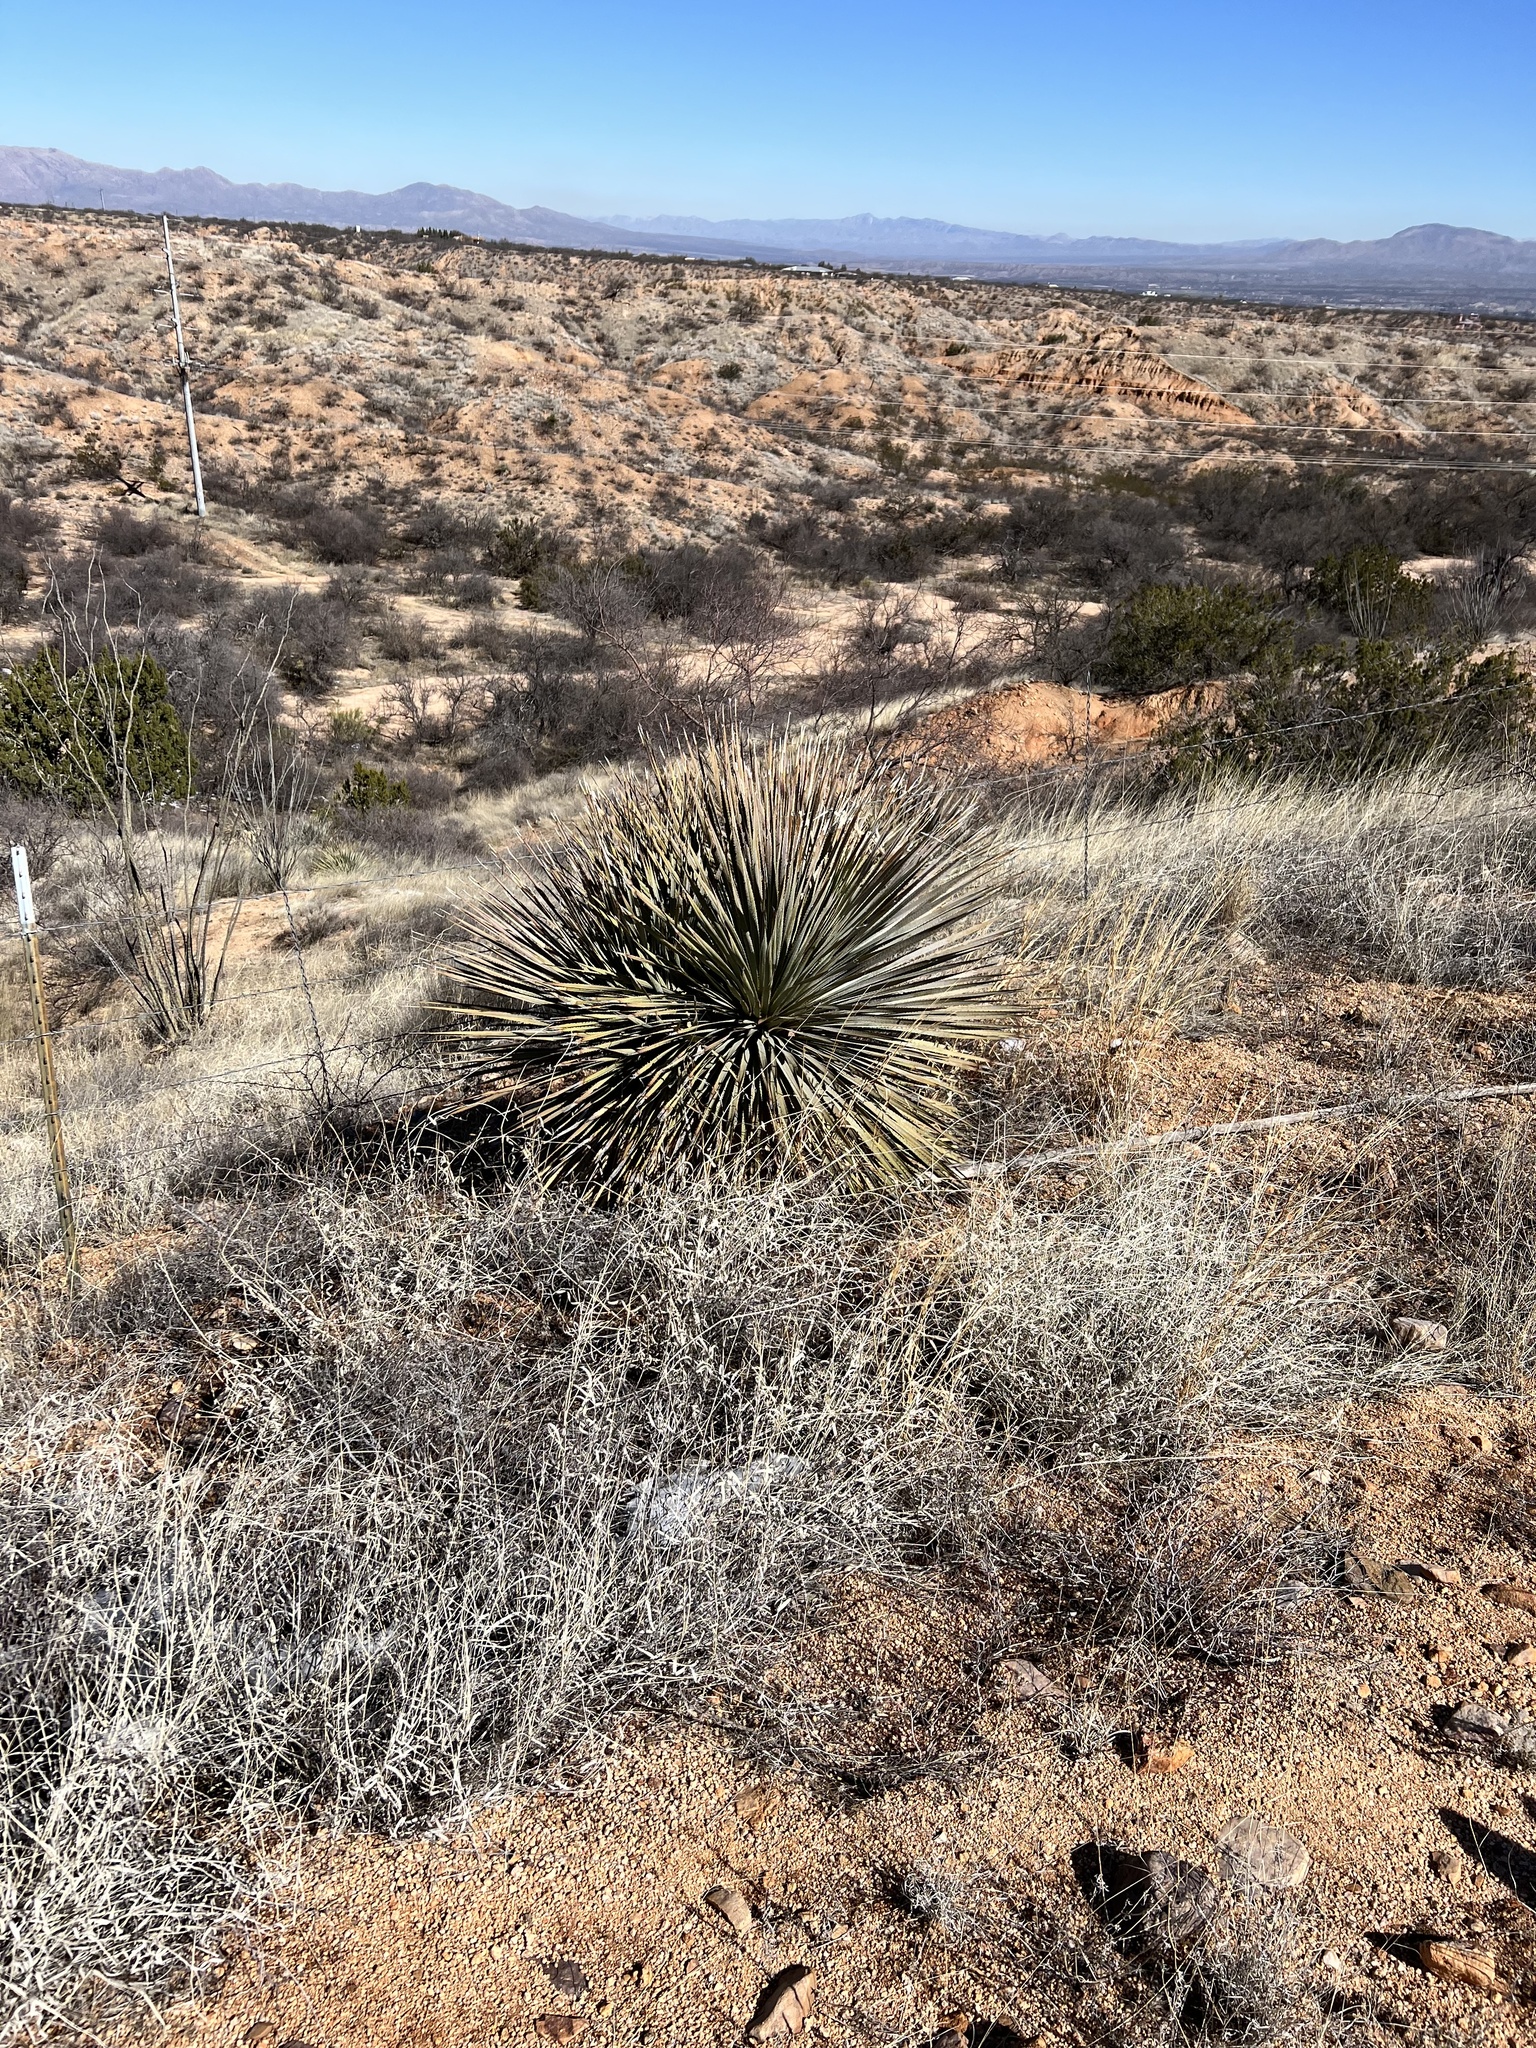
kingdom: Plantae
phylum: Tracheophyta
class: Liliopsida
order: Asparagales
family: Asparagaceae
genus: Dasylirion
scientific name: Dasylirion wheeleri
